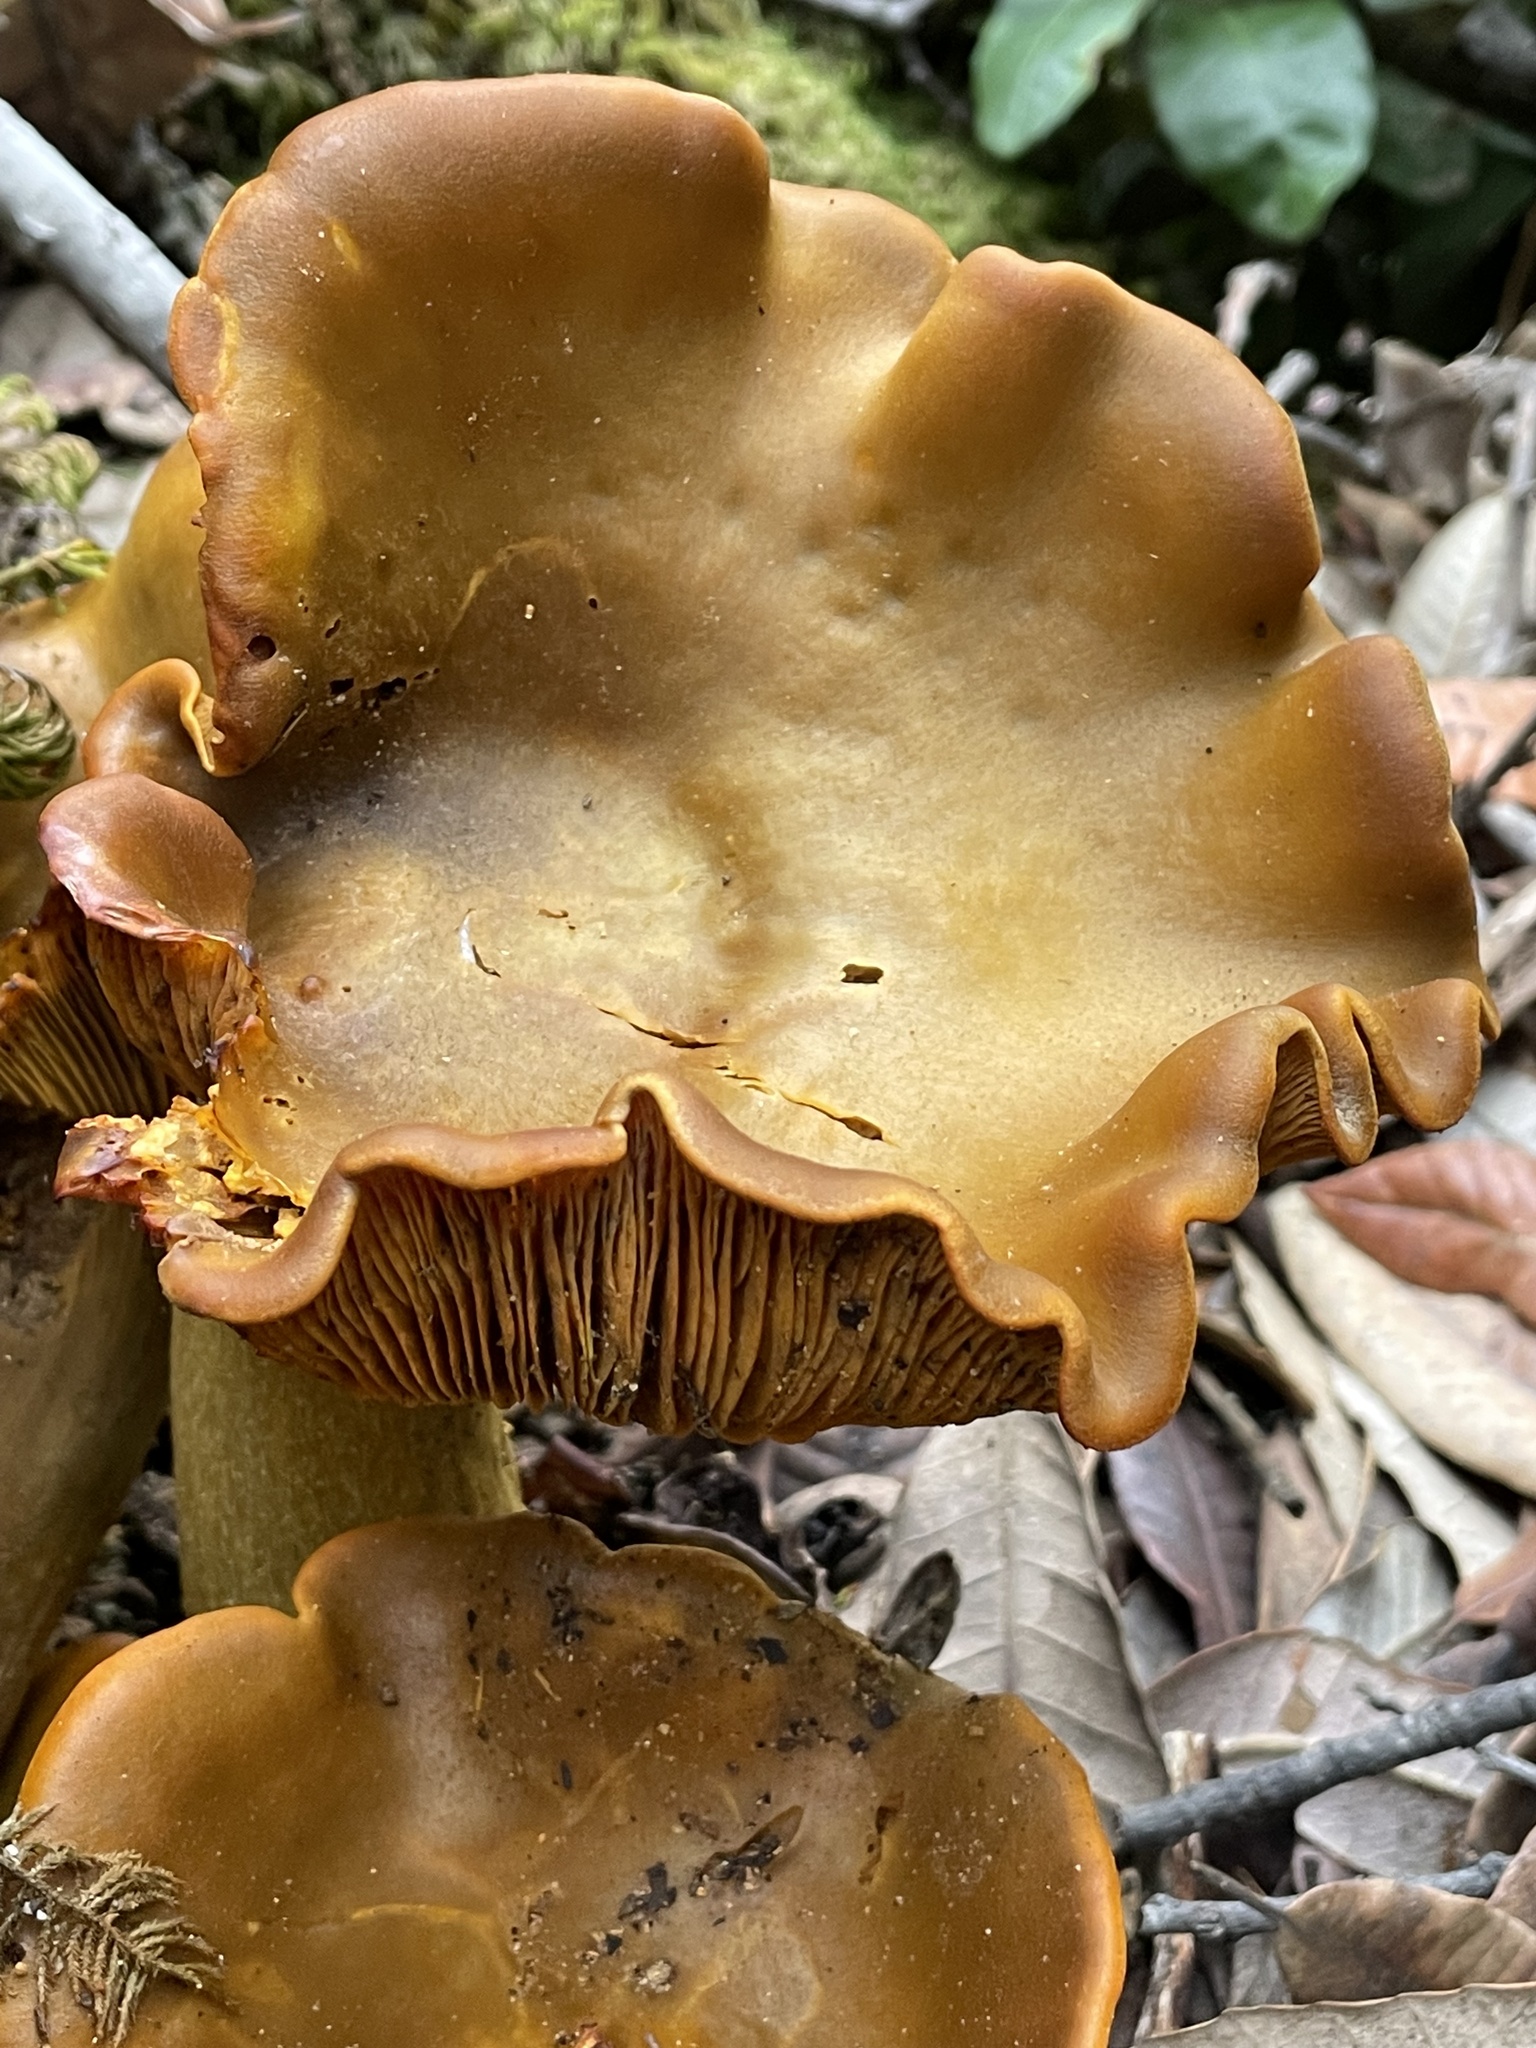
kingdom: Fungi
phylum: Basidiomycota
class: Agaricomycetes
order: Agaricales
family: Omphalotaceae
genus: Omphalotus
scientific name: Omphalotus olivascens
